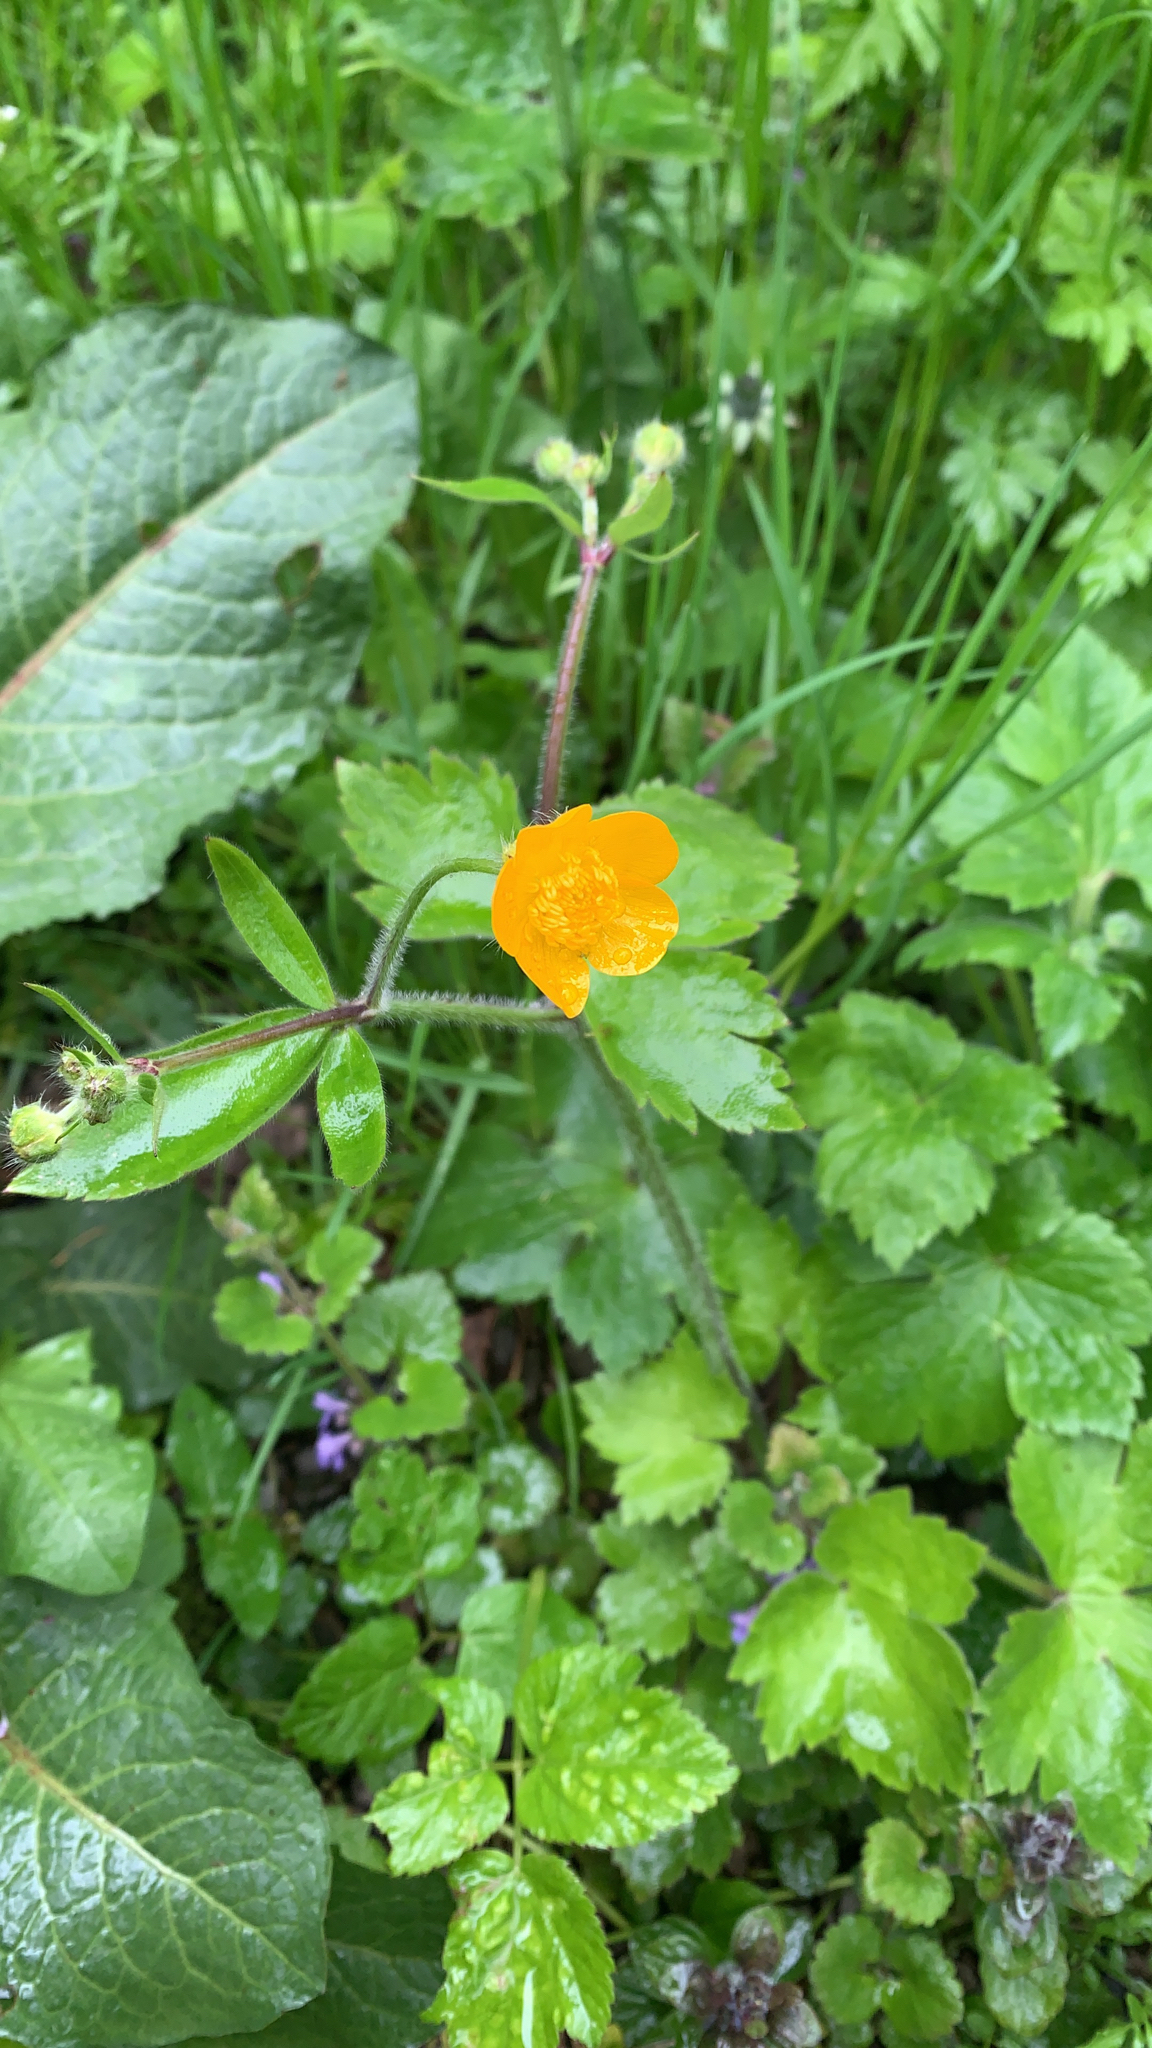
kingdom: Plantae
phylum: Tracheophyta
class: Magnoliopsida
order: Ranunculales
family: Ranunculaceae
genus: Ranunculus
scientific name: Ranunculus lanuginosus
